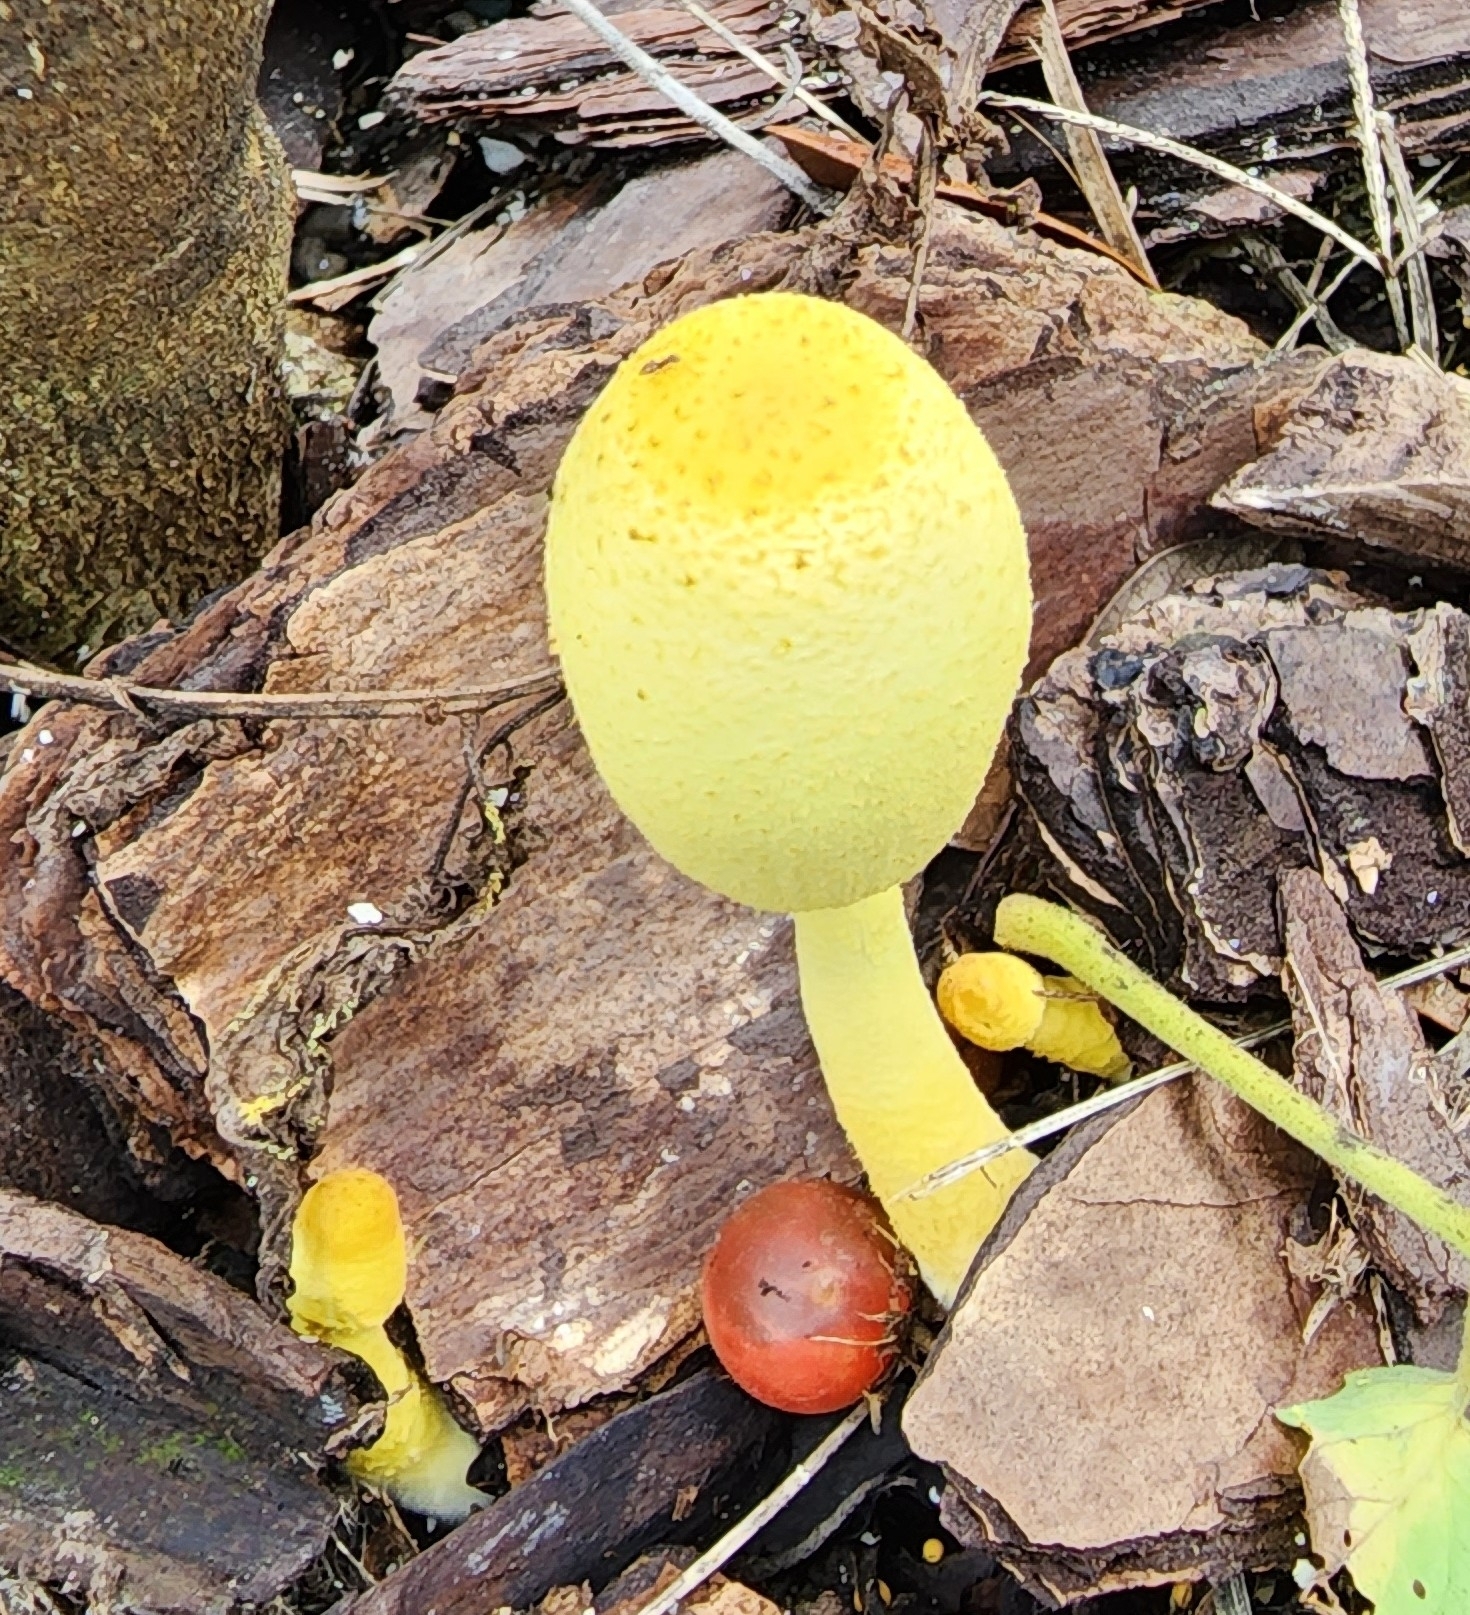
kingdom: Fungi
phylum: Basidiomycota
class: Agaricomycetes
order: Agaricales
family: Agaricaceae
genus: Leucocoprinus
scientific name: Leucocoprinus birnbaumii
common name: Plantpot dapperling
